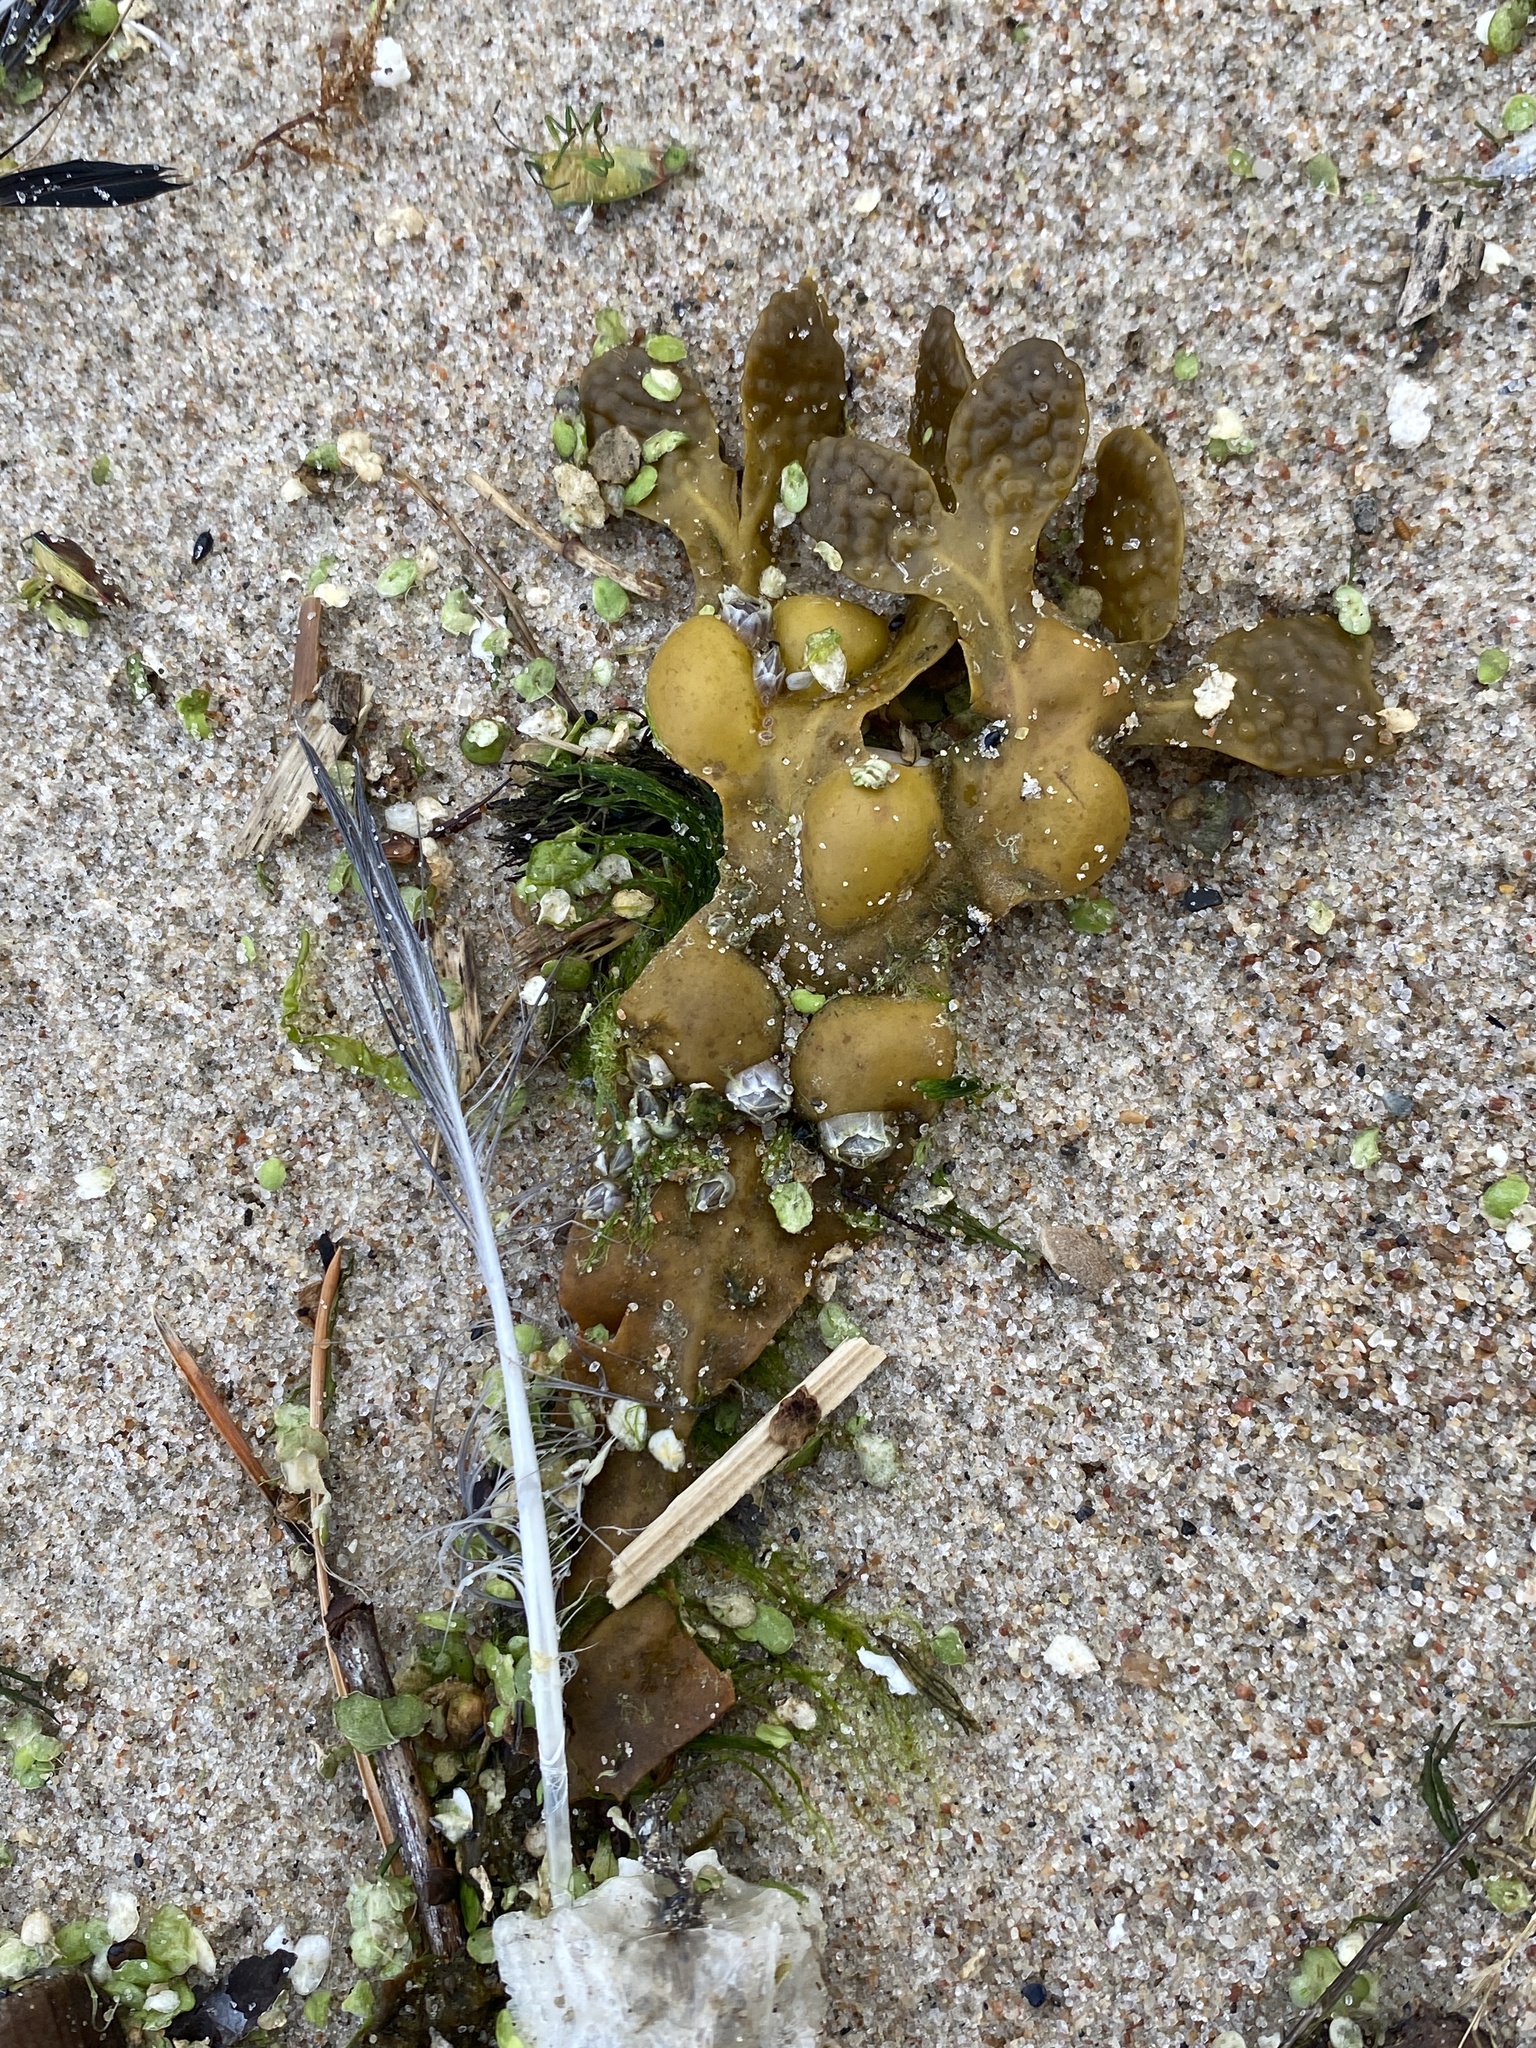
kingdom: Chromista
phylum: Ochrophyta
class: Phaeophyceae
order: Fucales
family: Fucaceae
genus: Fucus
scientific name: Fucus vesiculosus
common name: Bladder wrack
